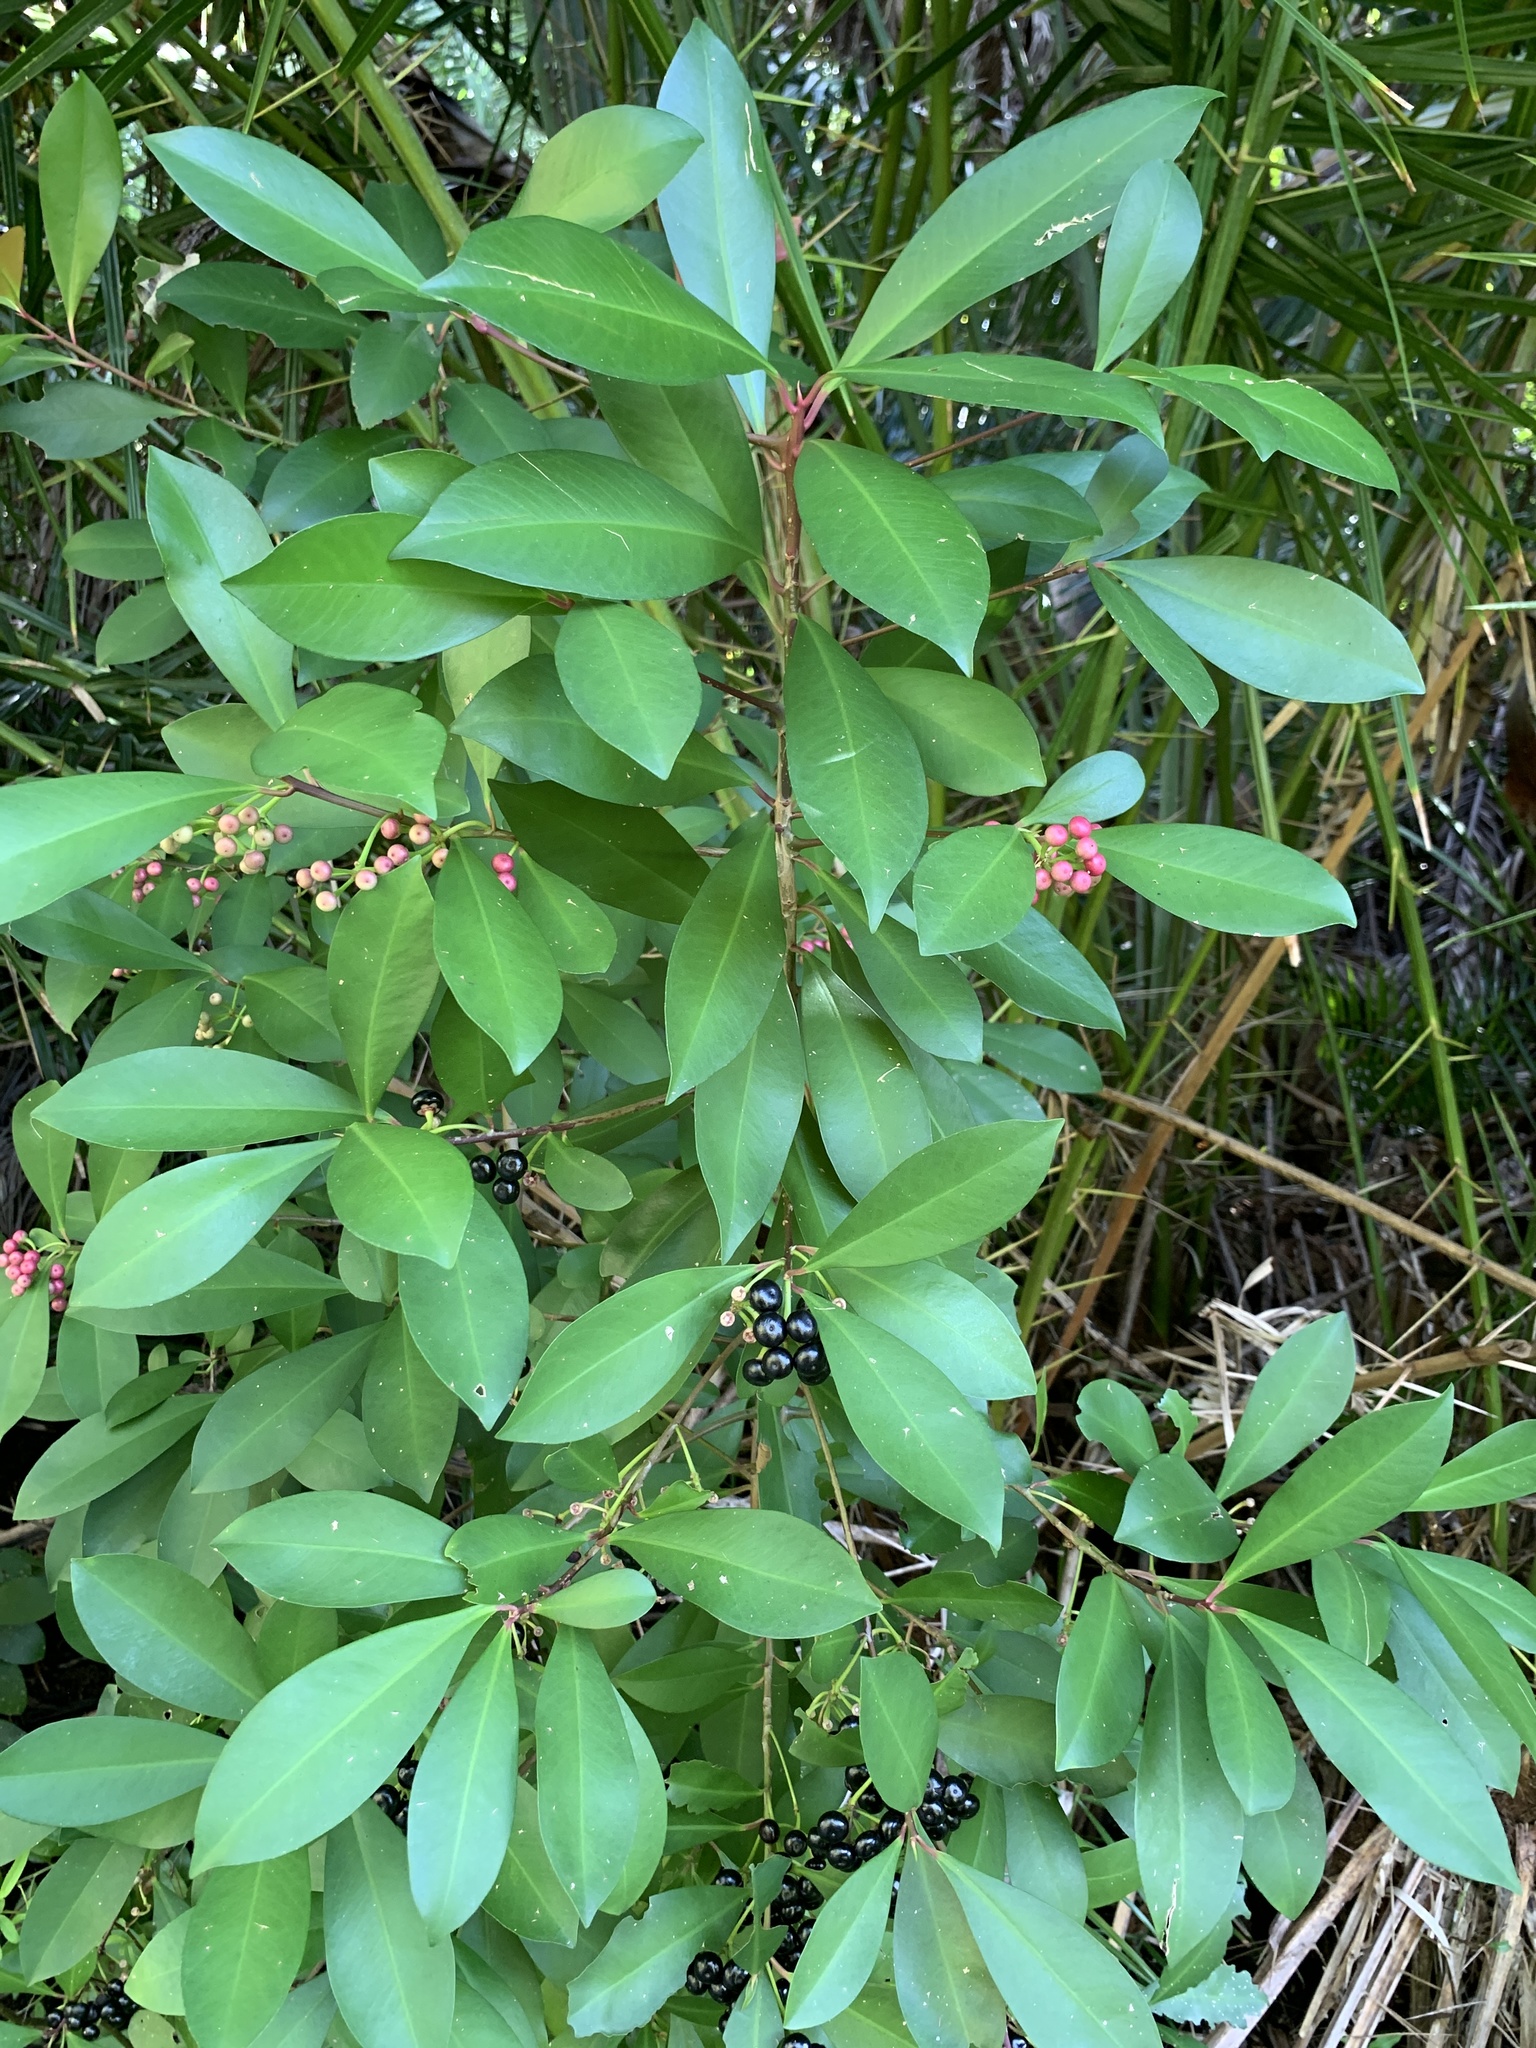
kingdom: Plantae
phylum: Tracheophyta
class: Magnoliopsida
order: Ericales
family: Primulaceae
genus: Ardisia
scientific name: Ardisia elliptica
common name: Shoebutton
